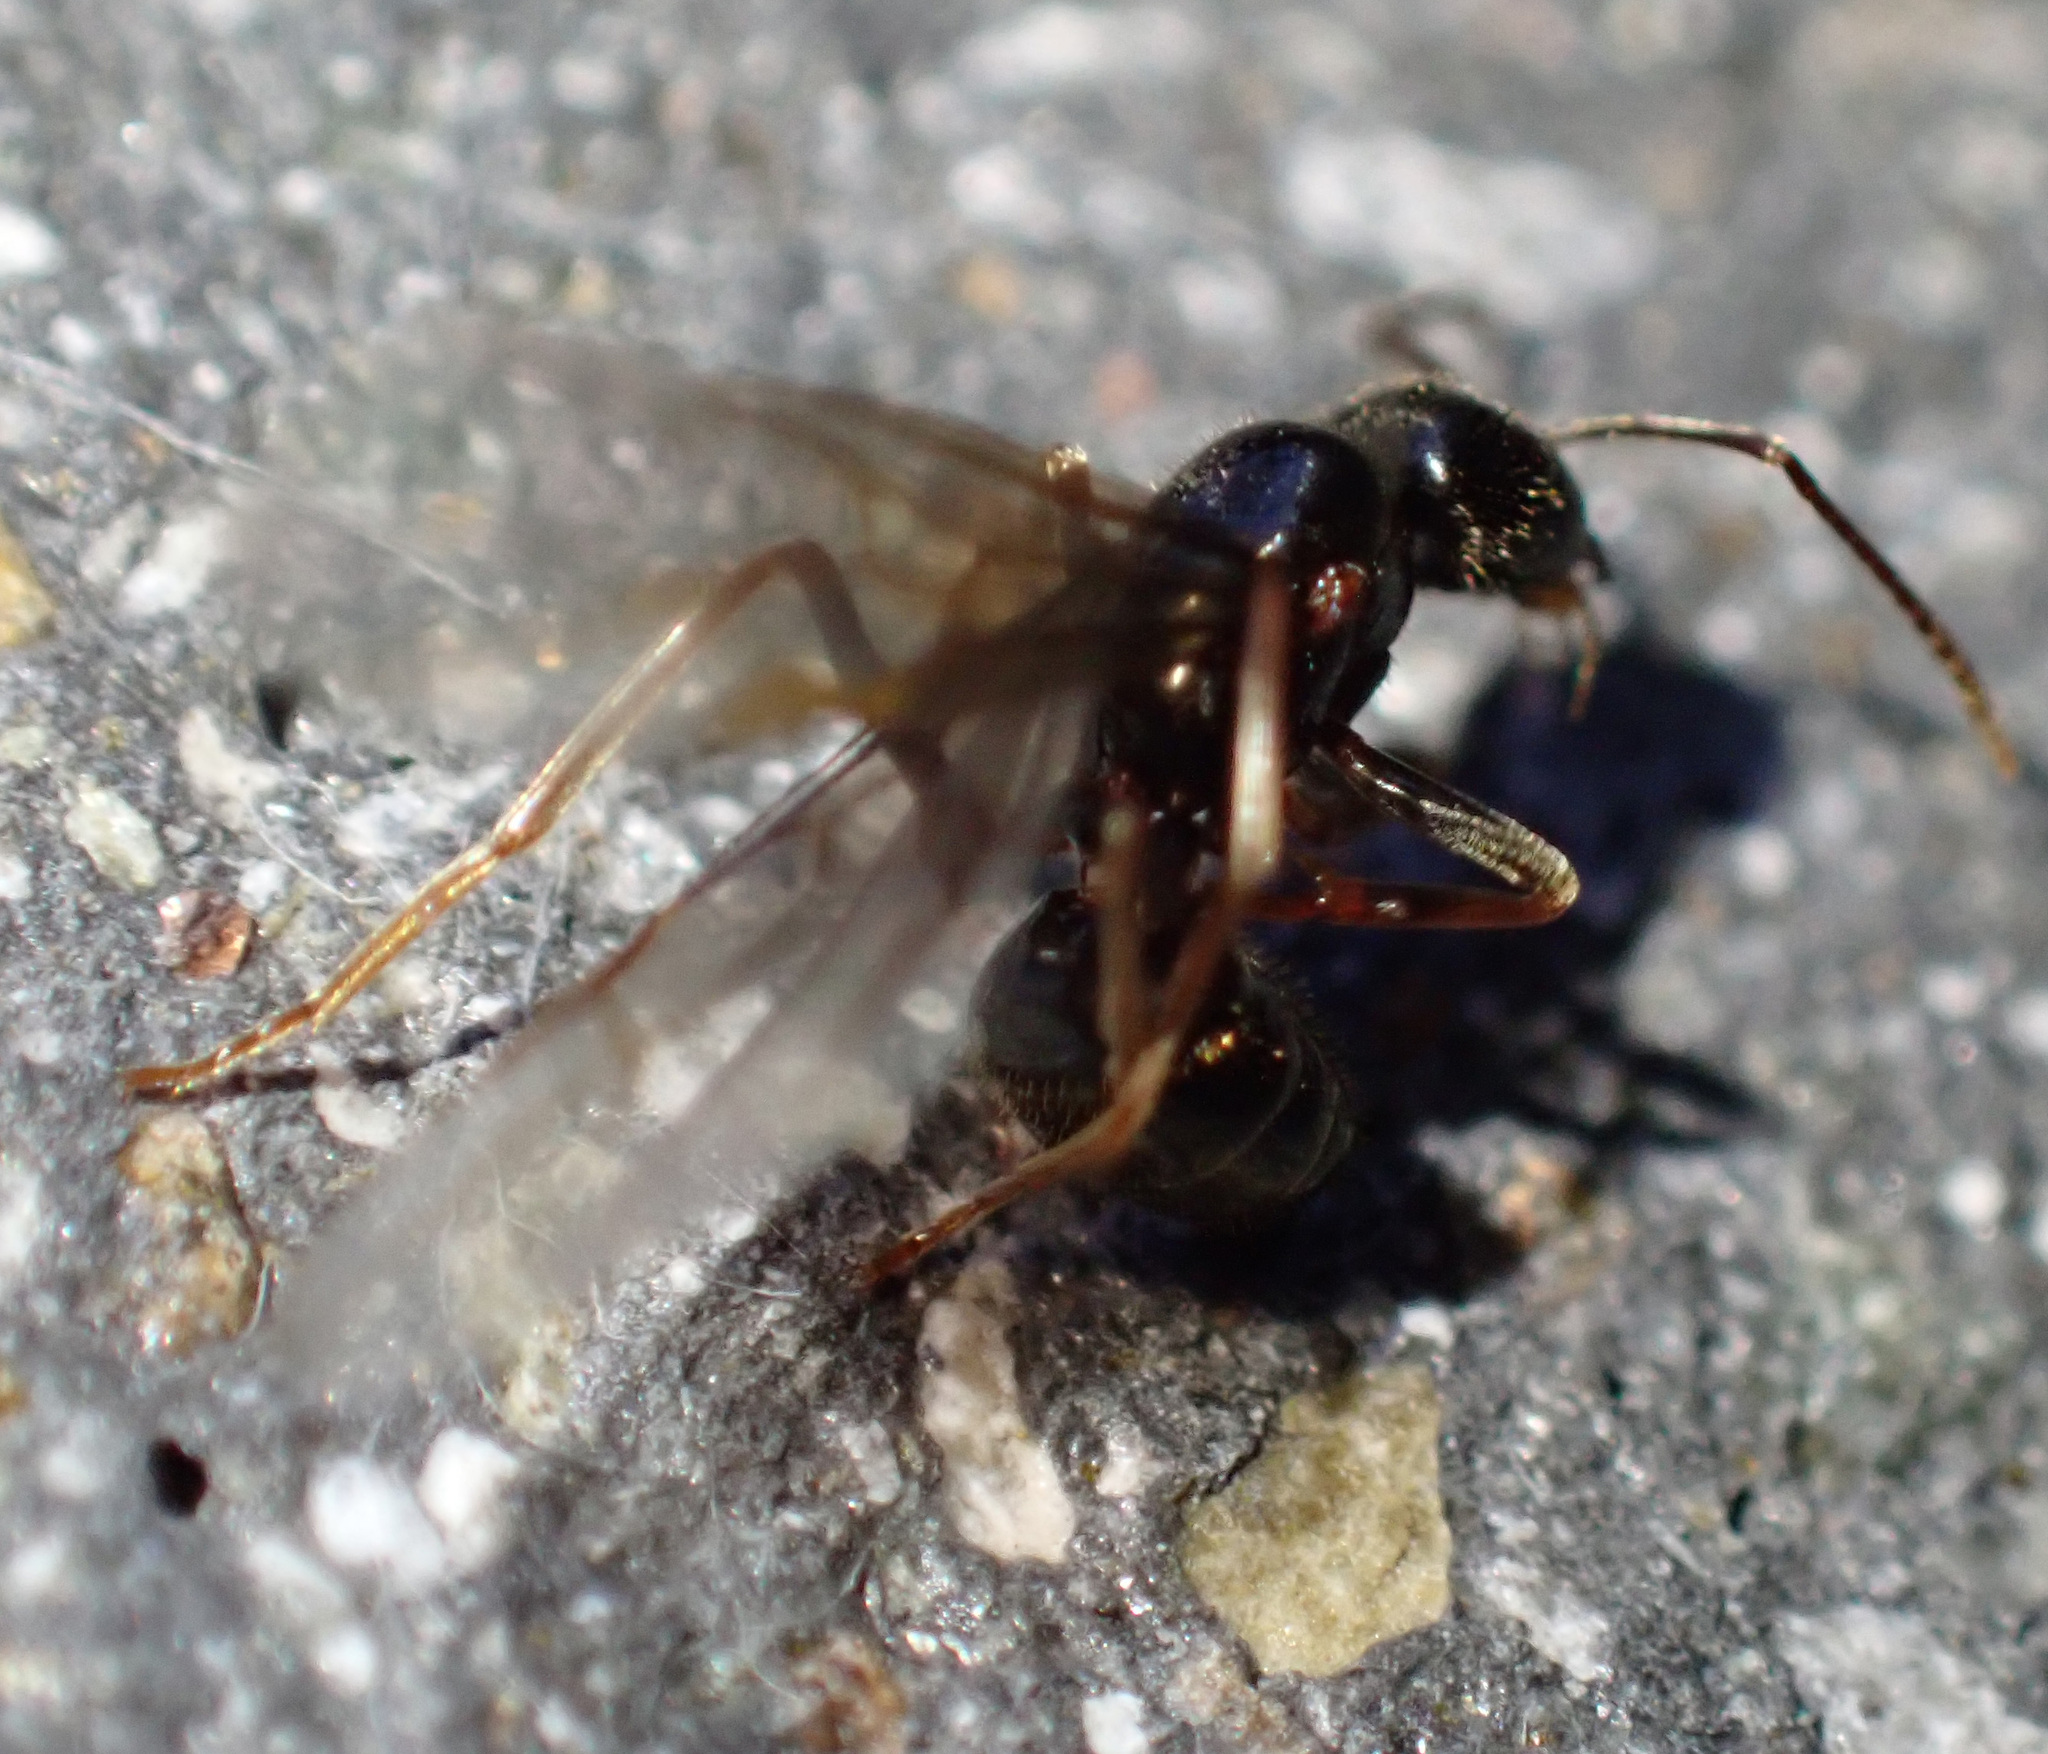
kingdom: Animalia
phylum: Arthropoda
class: Insecta
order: Hymenoptera
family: Formicidae
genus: Lasius
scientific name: Lasius fuliginosus
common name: Jet ant
